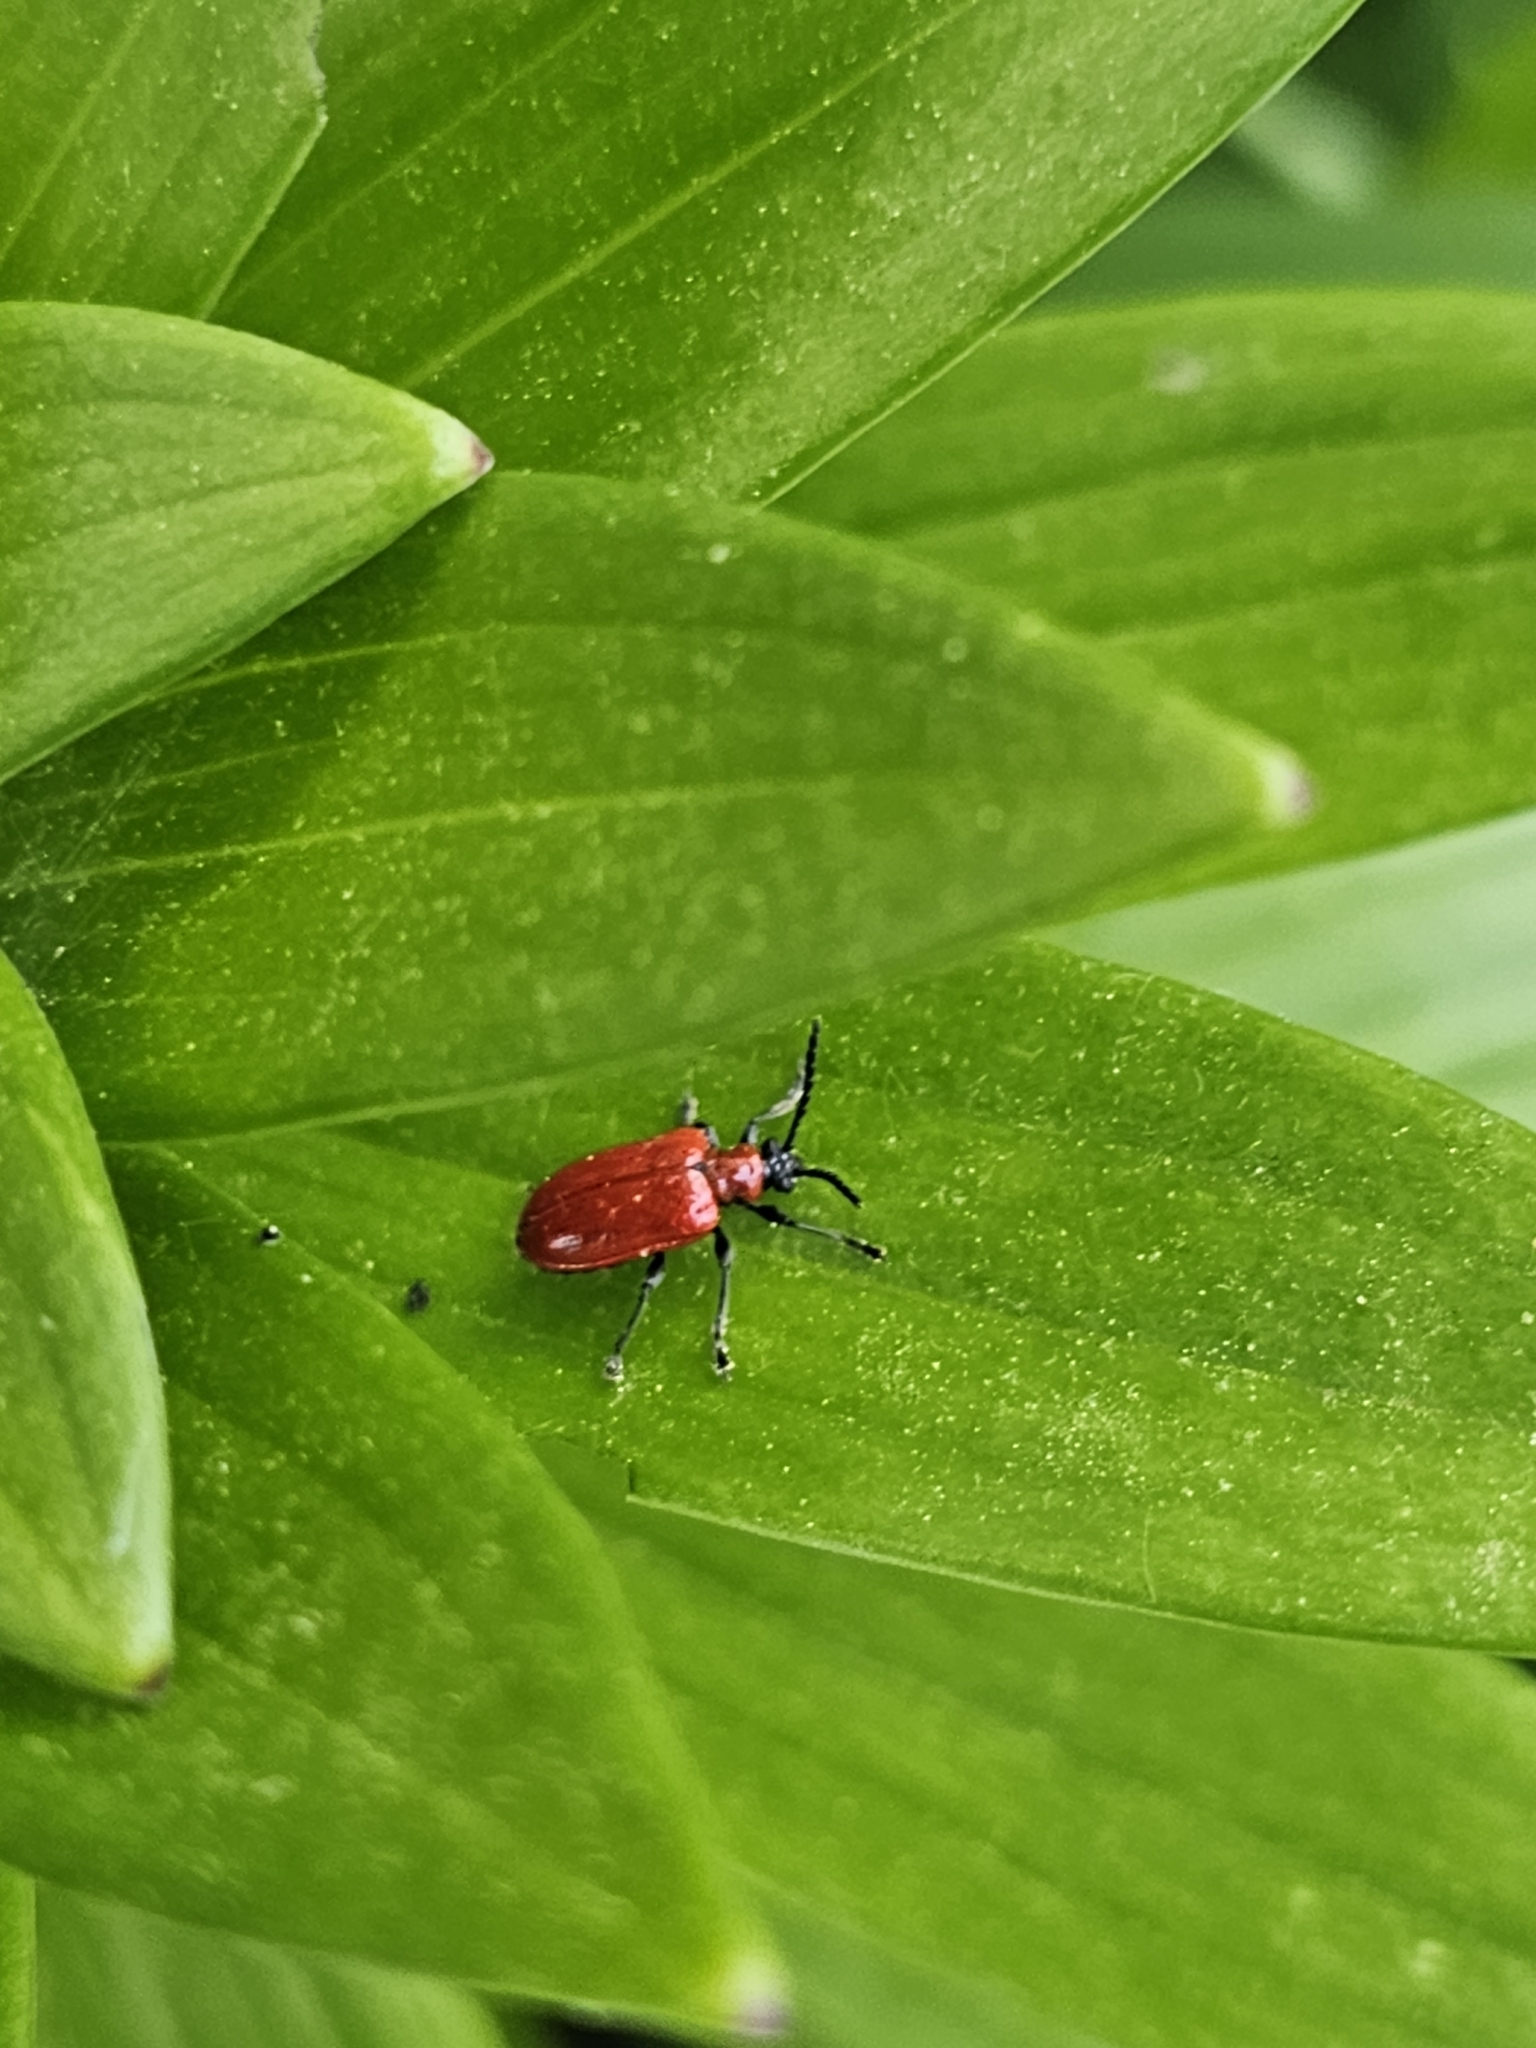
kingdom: Animalia
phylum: Arthropoda
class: Insecta
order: Coleoptera
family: Chrysomelidae
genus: Lilioceris
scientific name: Lilioceris lilii
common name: Lily beetle
